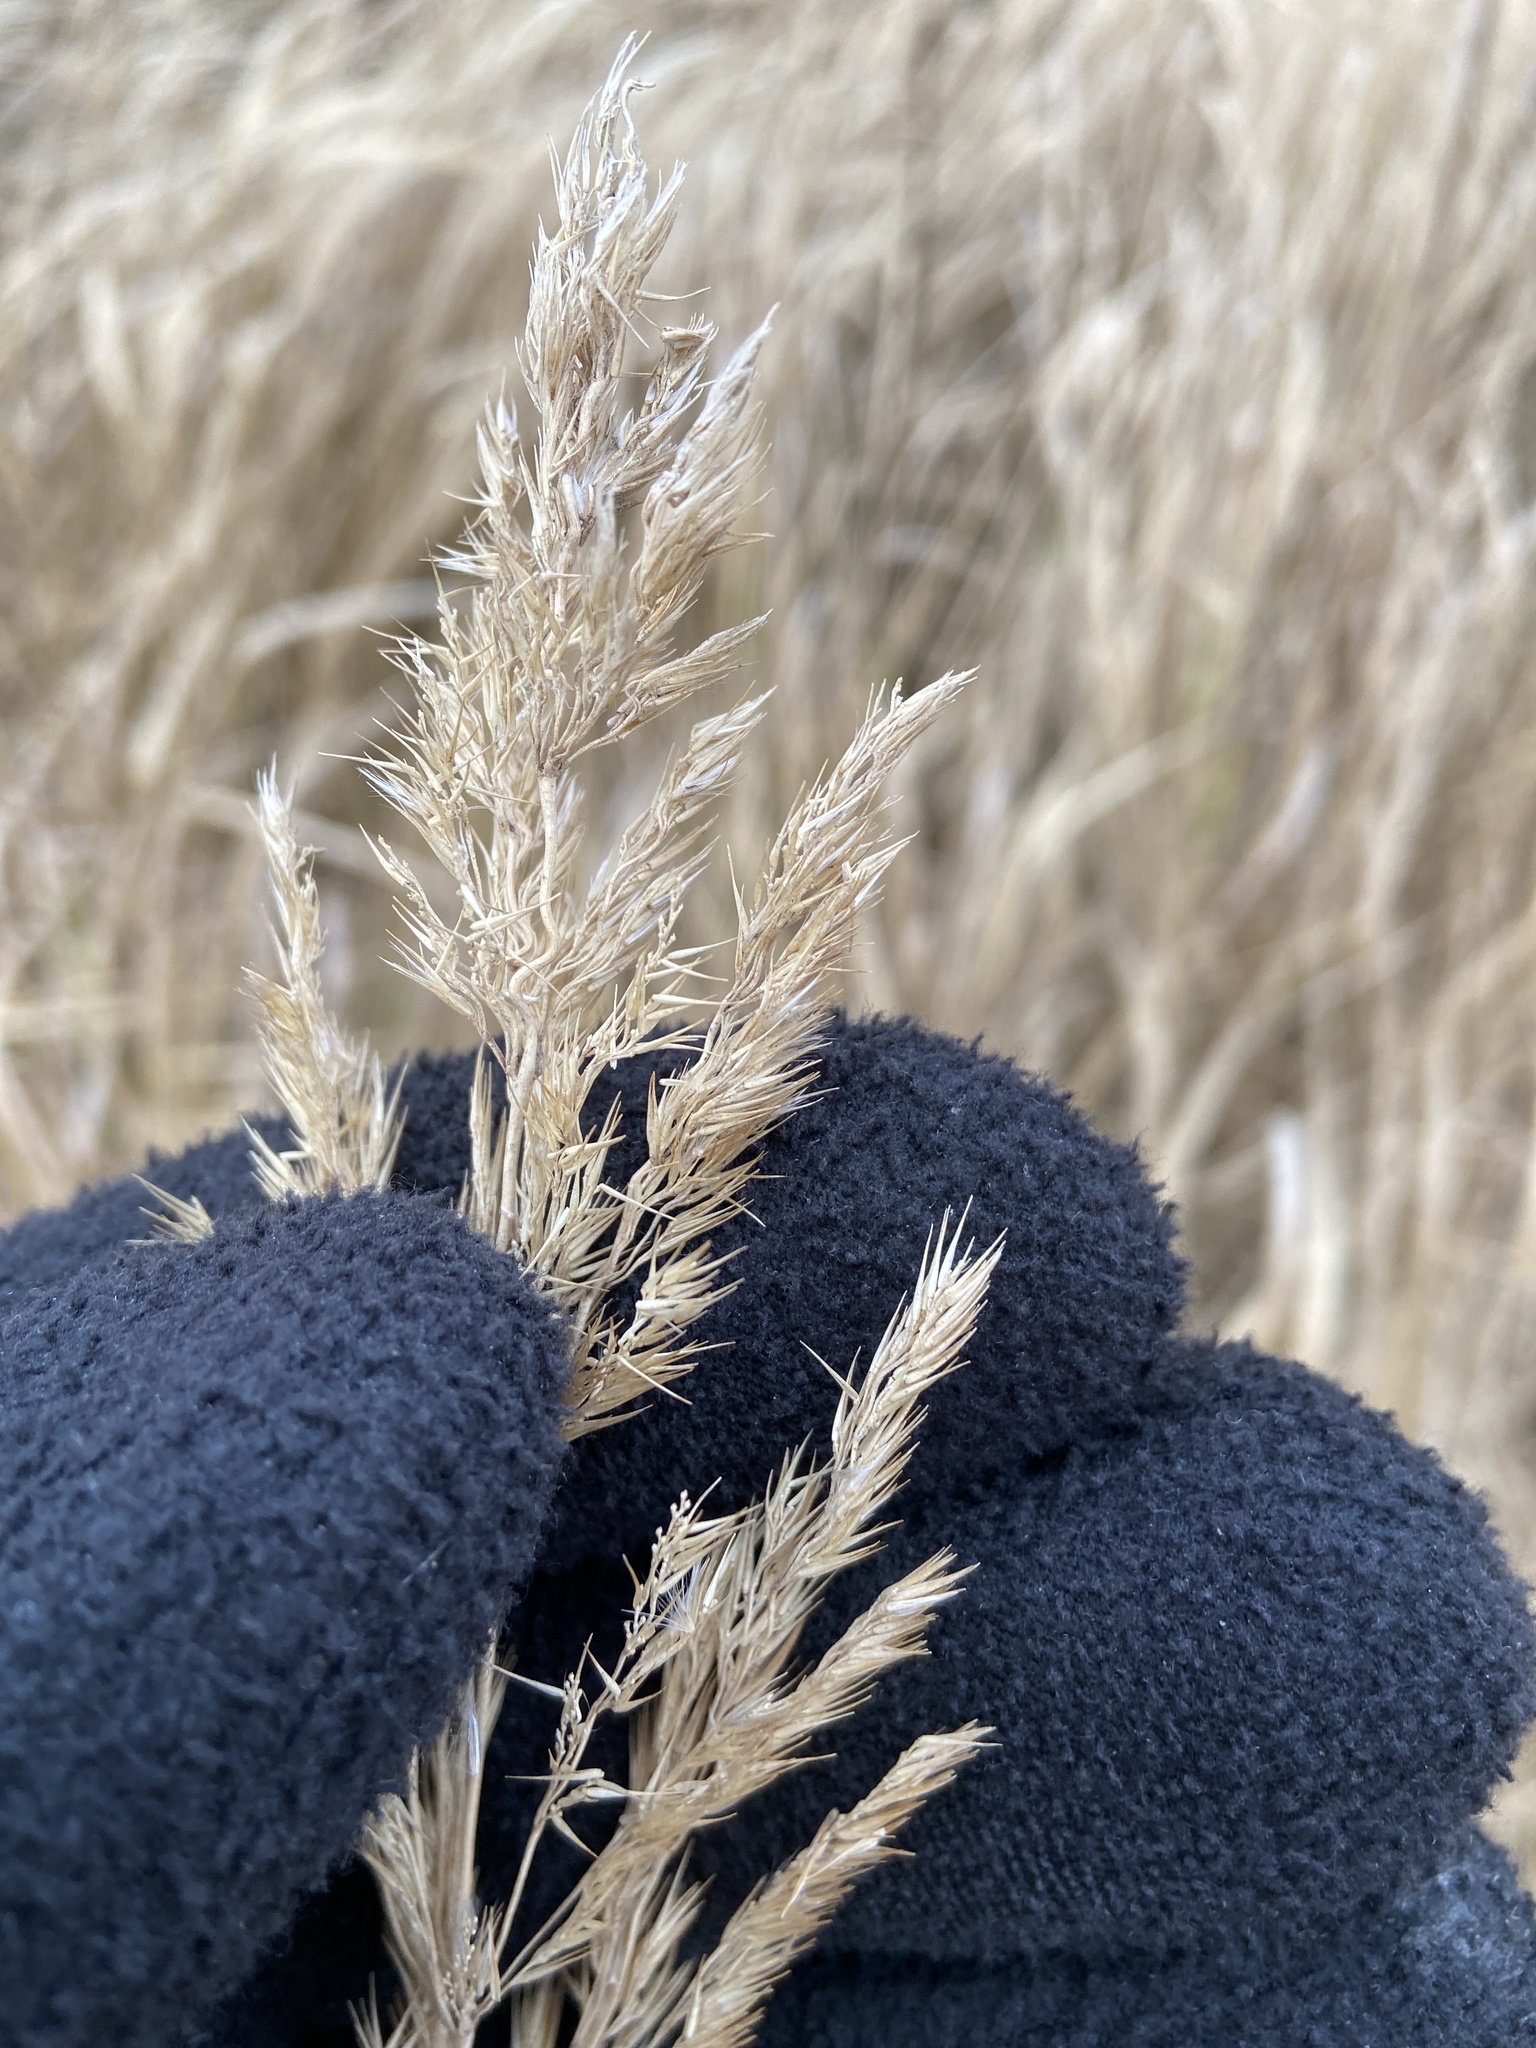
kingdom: Plantae
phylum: Tracheophyta
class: Liliopsida
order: Poales
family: Poaceae
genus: Calamagrostis
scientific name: Calamagrostis epigejos
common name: Wood small-reed
